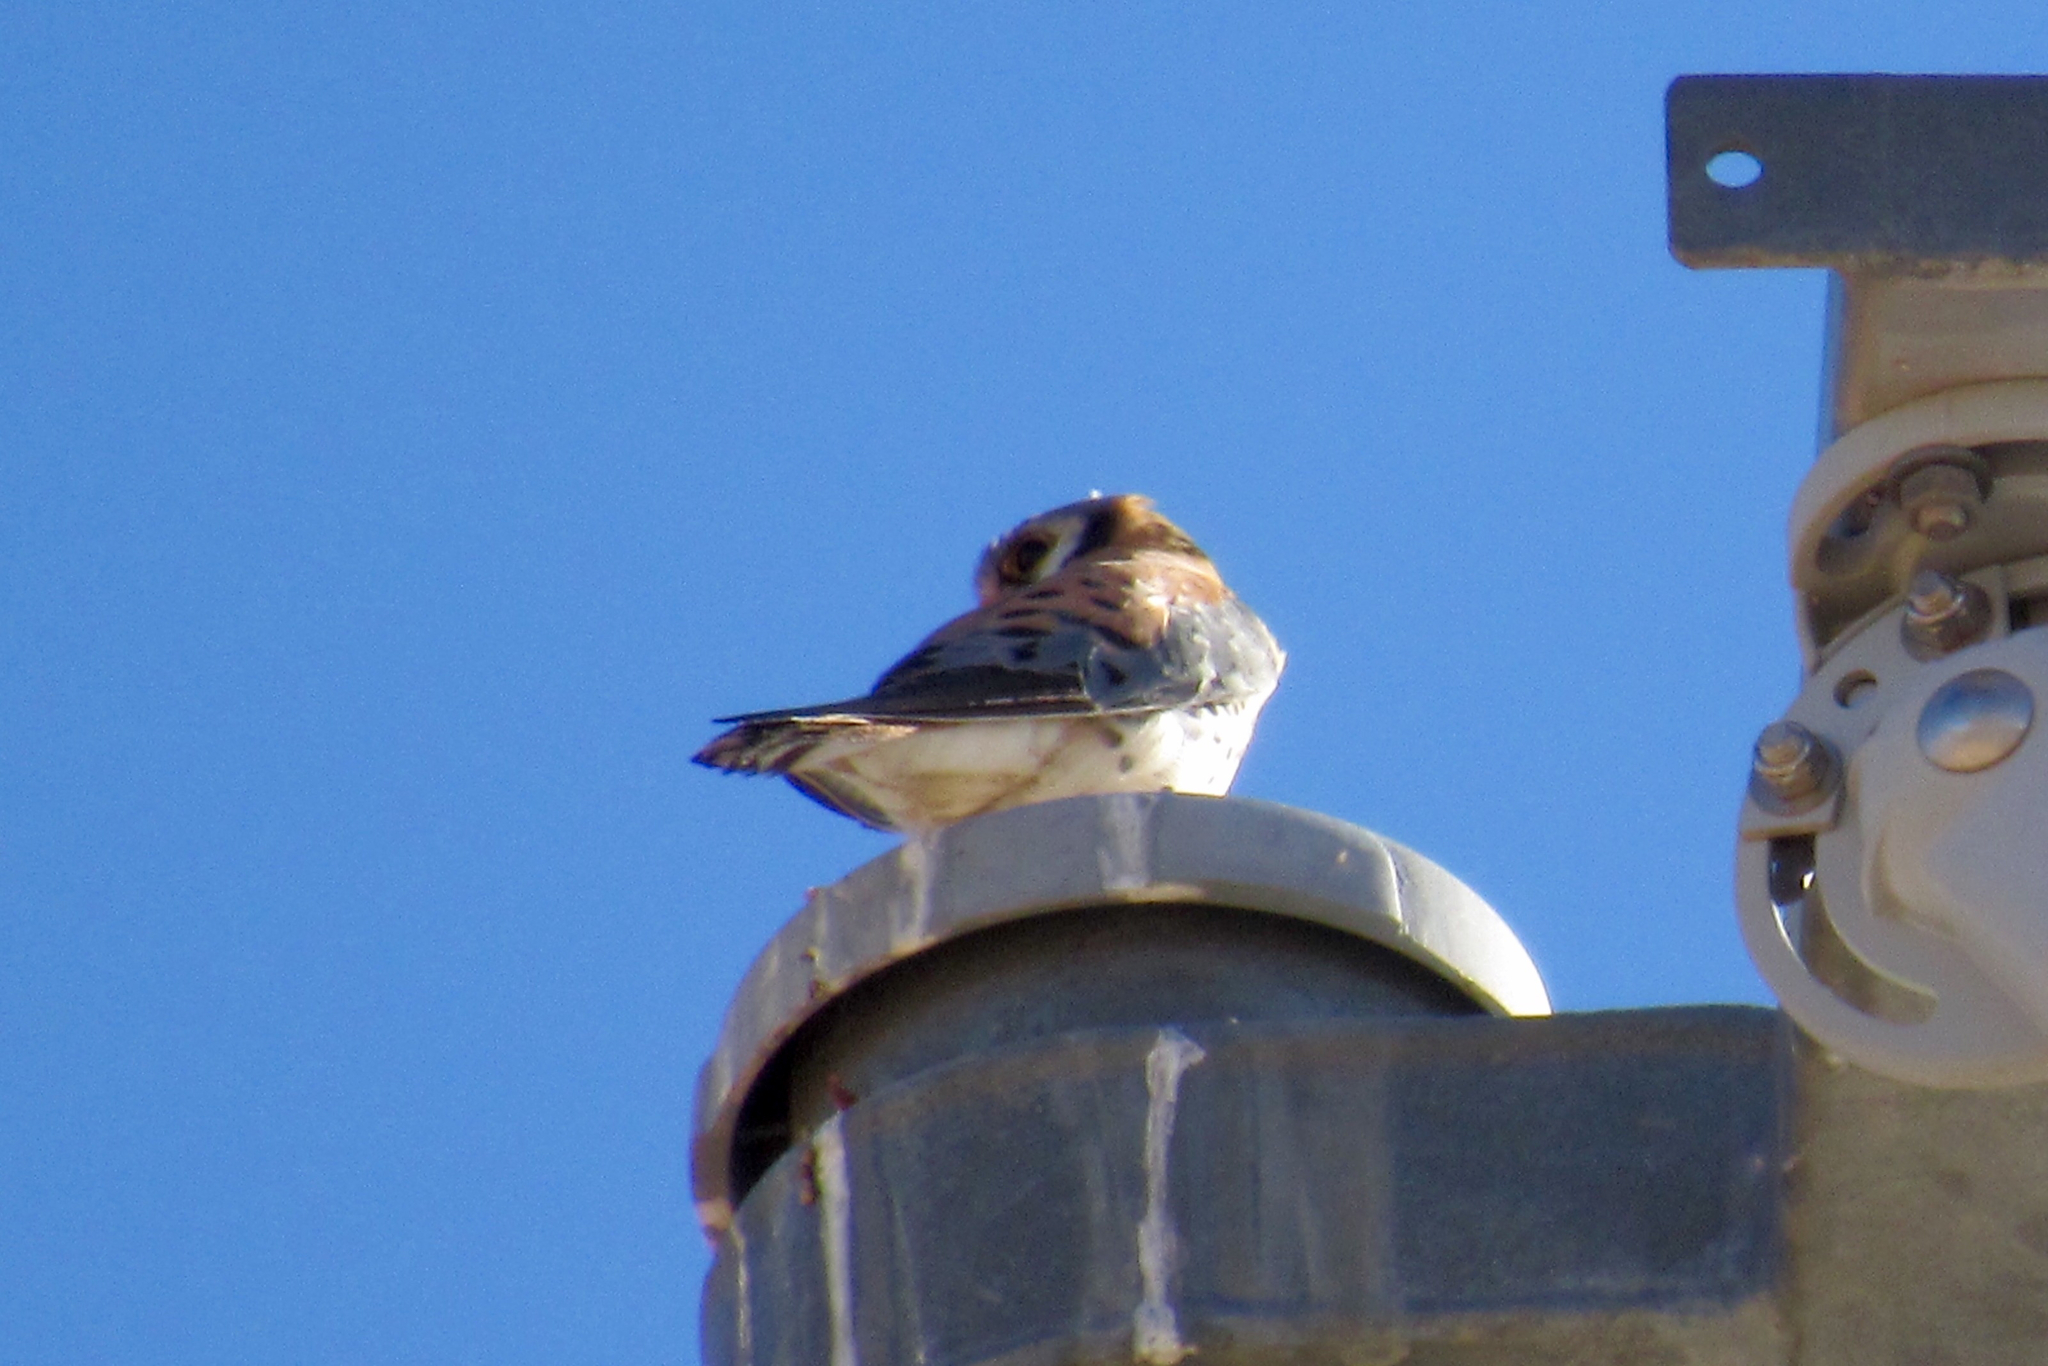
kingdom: Animalia
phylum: Chordata
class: Aves
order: Falconiformes
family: Falconidae
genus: Falco
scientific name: Falco sparverius
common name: American kestrel
